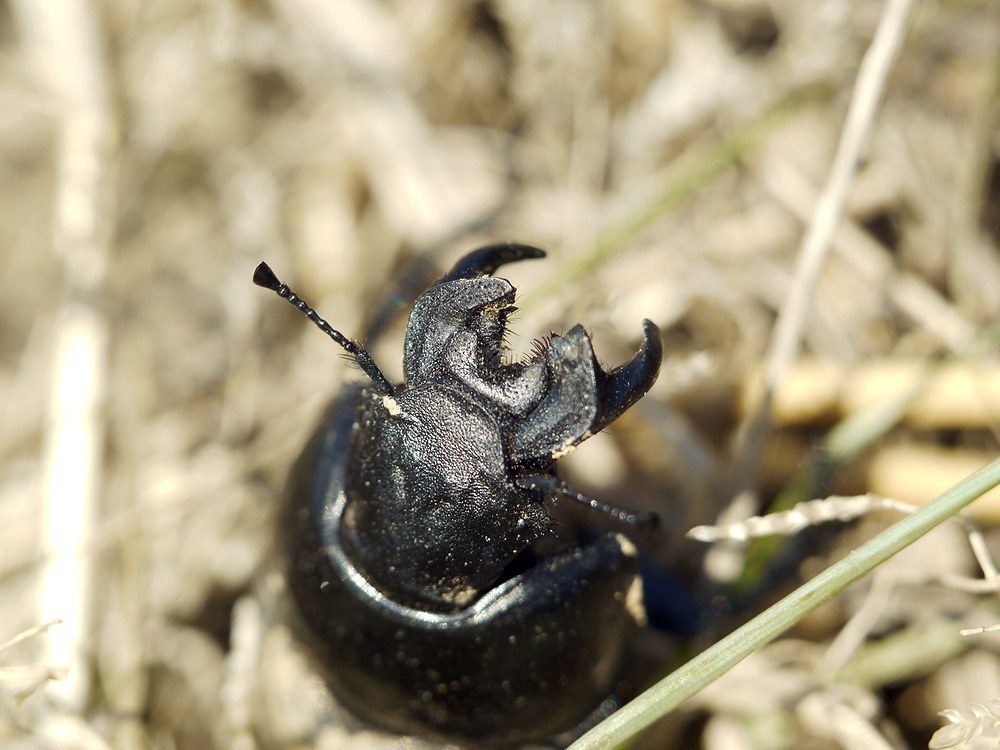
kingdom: Animalia
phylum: Arthropoda
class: Insecta
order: Coleoptera
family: Geotrupidae
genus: Lethrus
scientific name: Lethrus apterus
